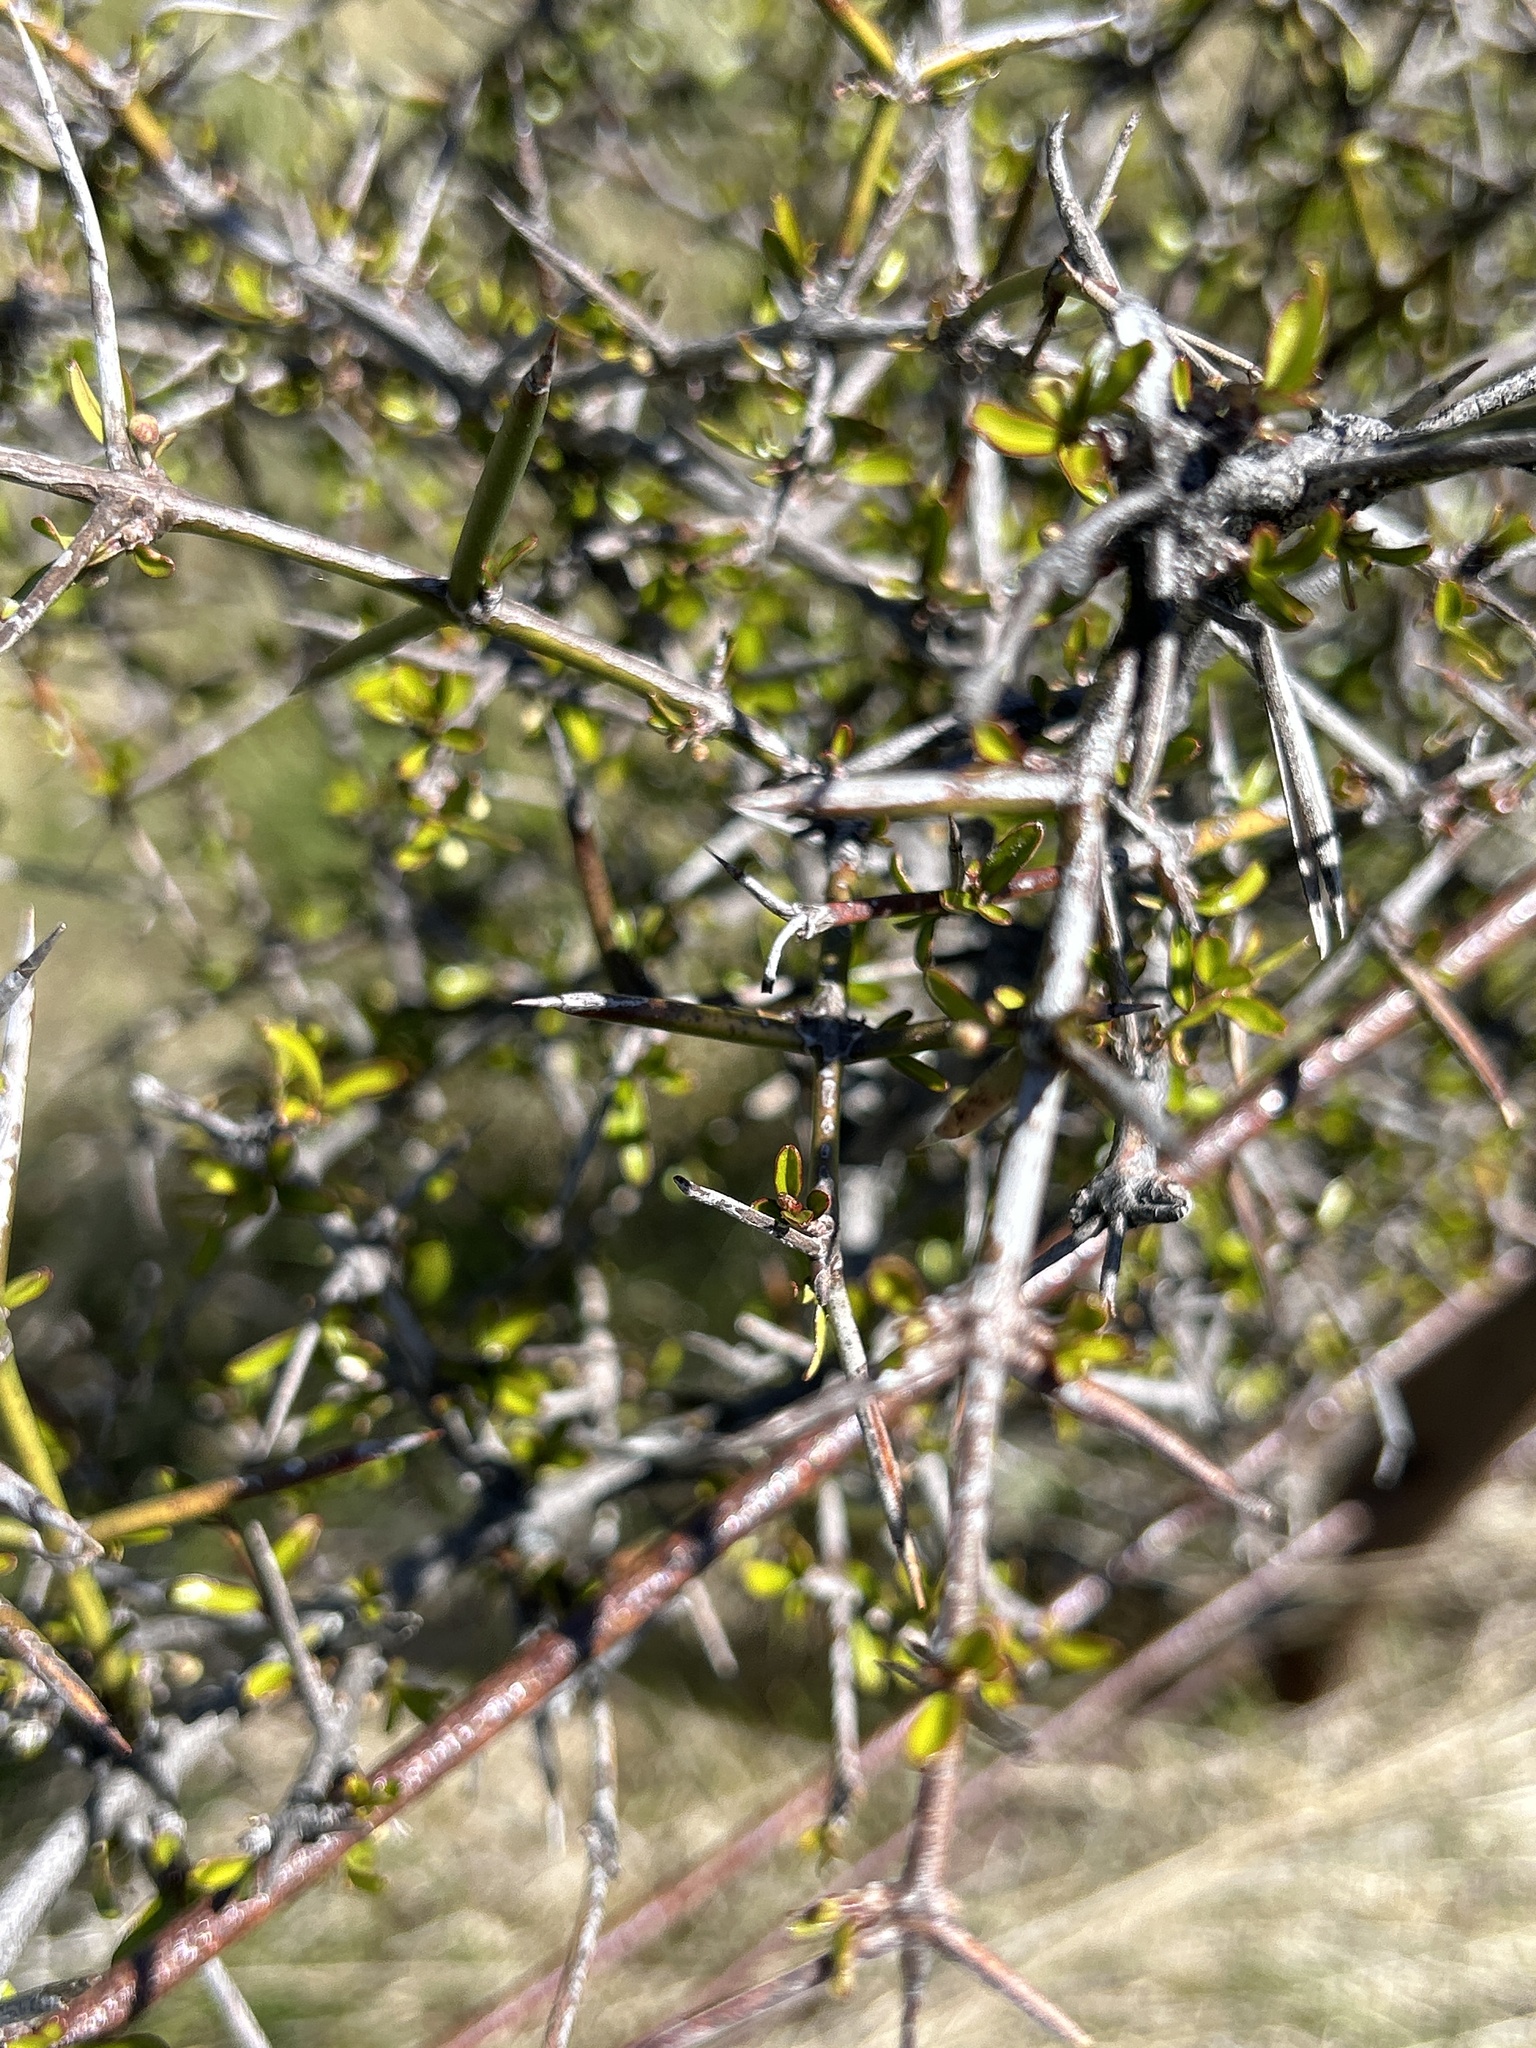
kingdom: Plantae
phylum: Tracheophyta
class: Magnoliopsida
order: Rosales
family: Rhamnaceae
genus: Discaria
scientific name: Discaria toumatou
